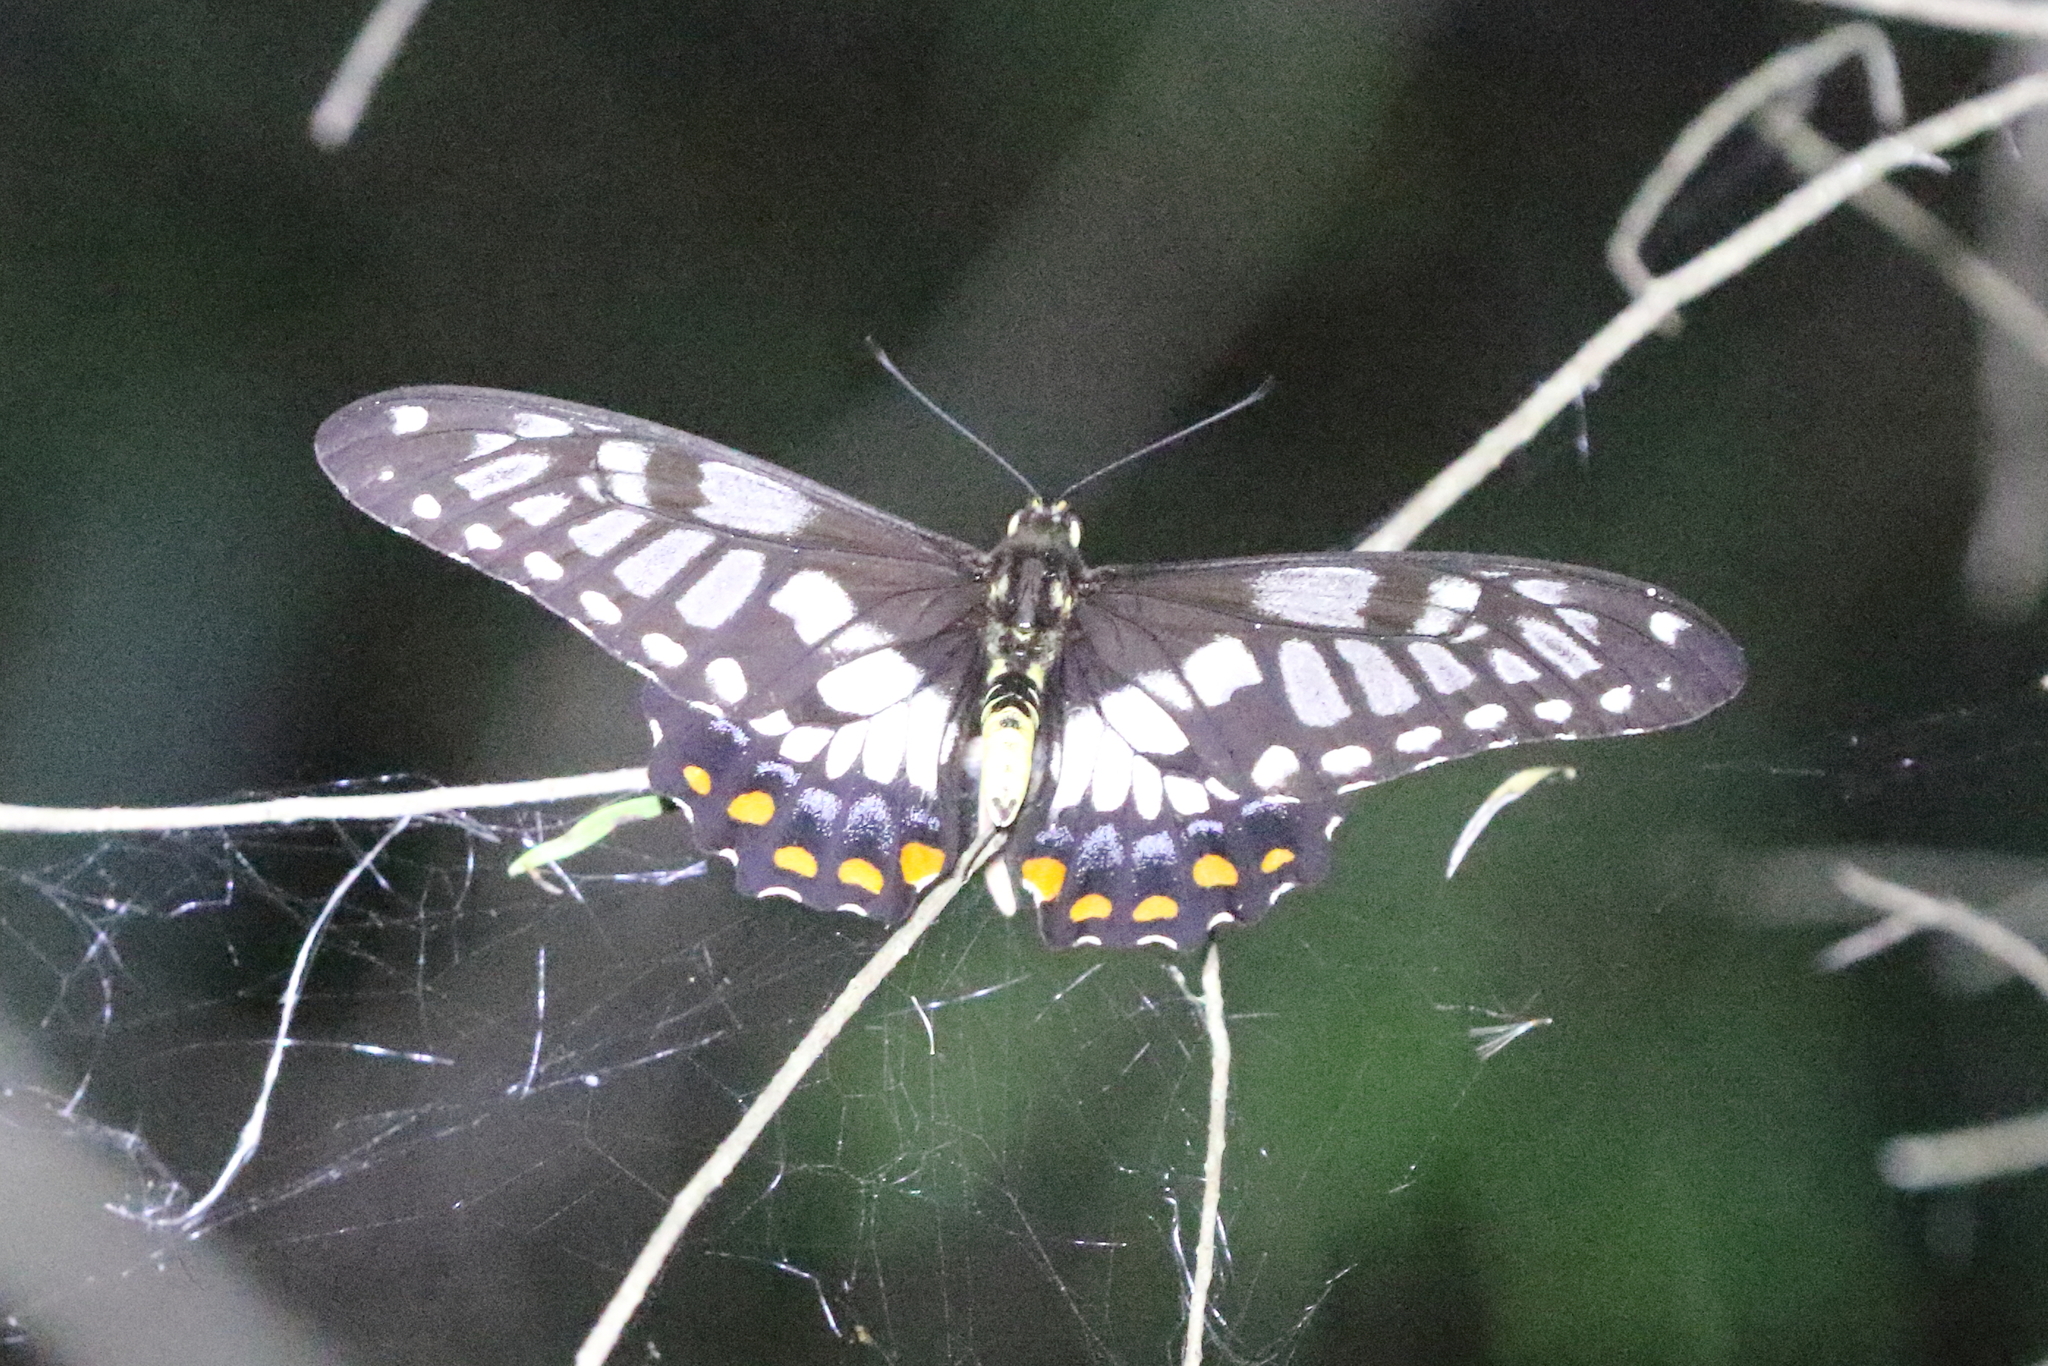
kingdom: Animalia
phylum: Arthropoda
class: Insecta
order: Lepidoptera
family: Papilionidae
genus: Papilio
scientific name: Papilio anactus
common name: Dingy swallowtail
